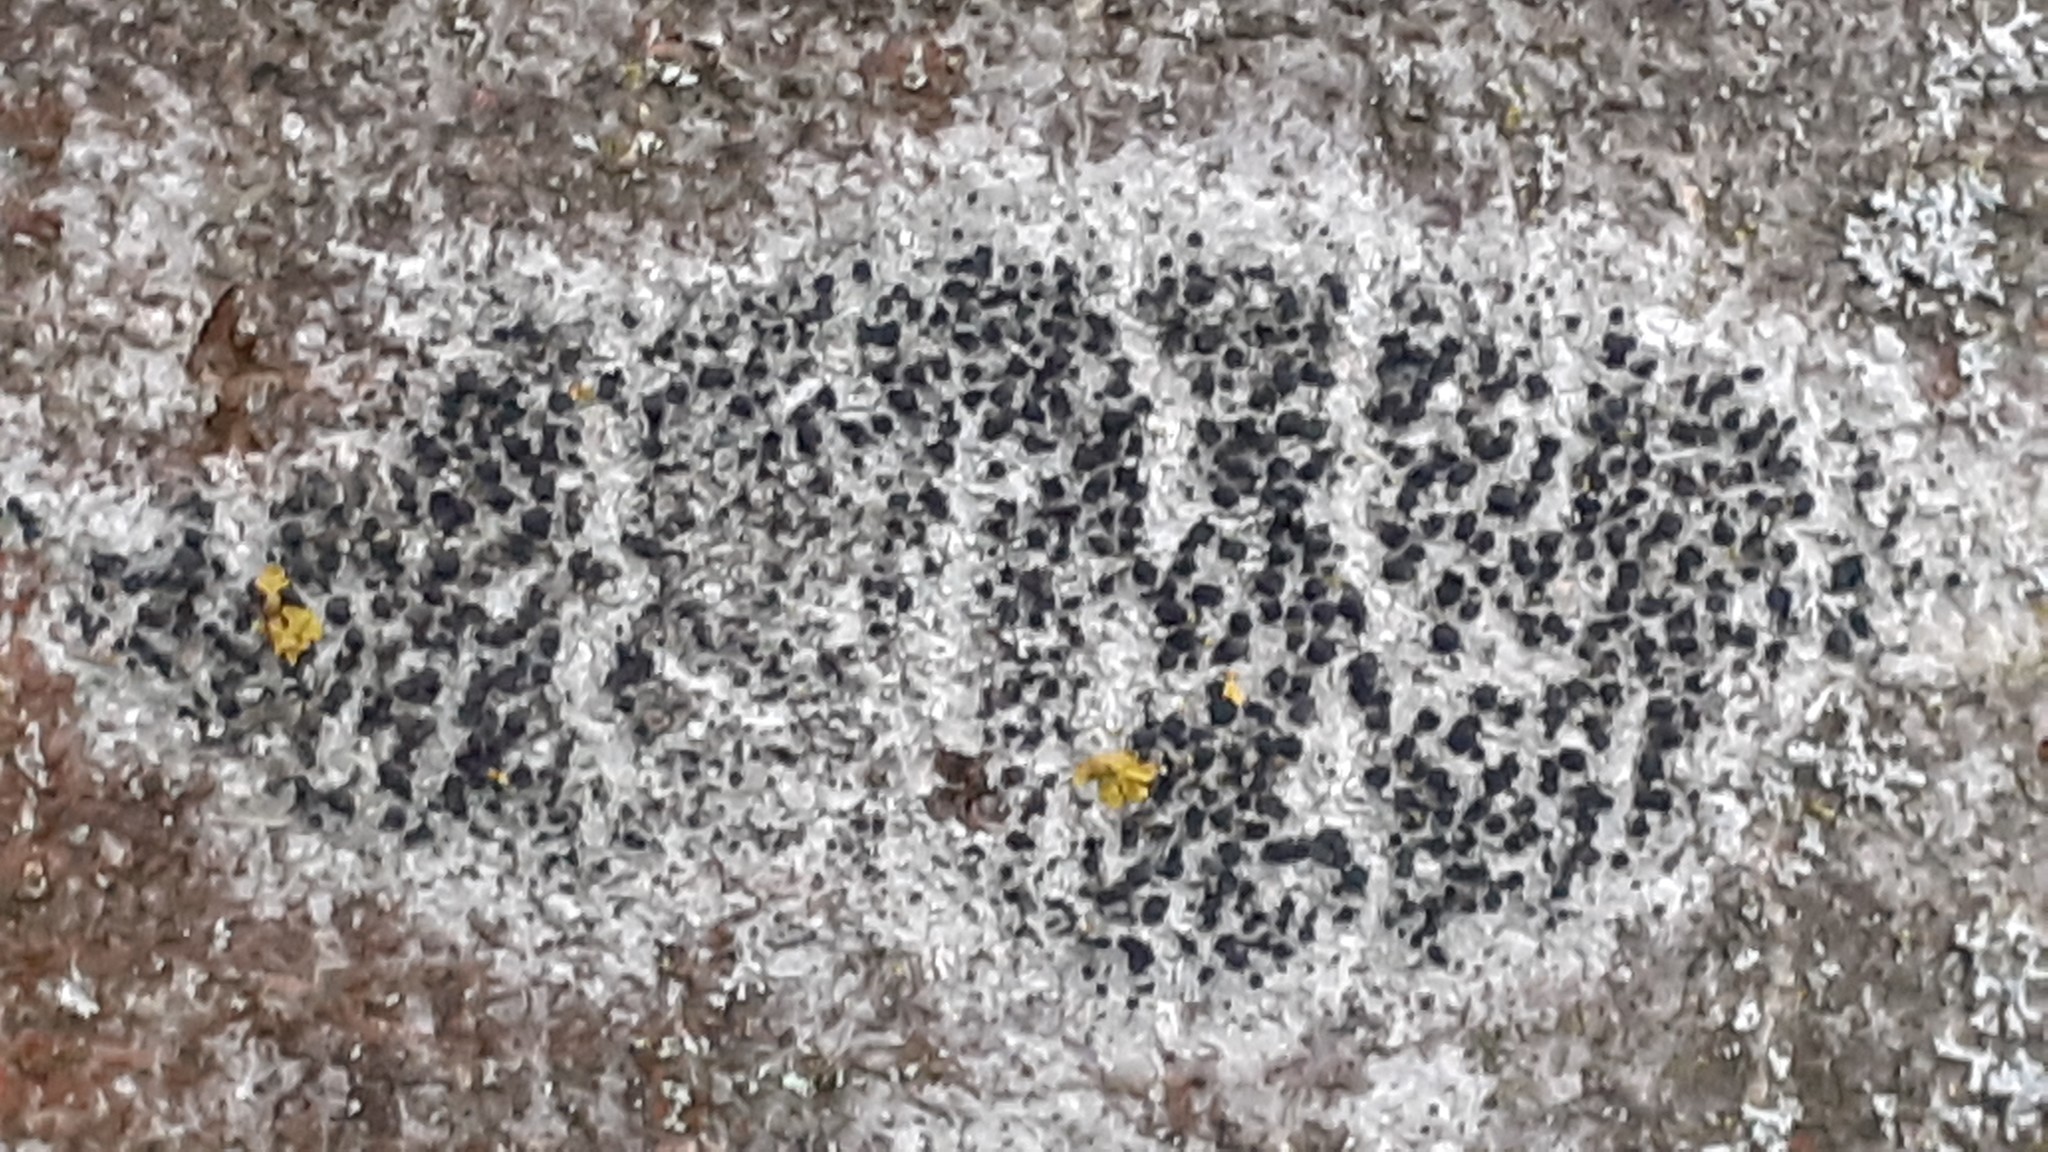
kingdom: Fungi
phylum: Ascomycota
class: Lecanoromycetes
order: Lecanorales
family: Lecanoraceae
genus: Lecidella
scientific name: Lecidella elaeochroma
